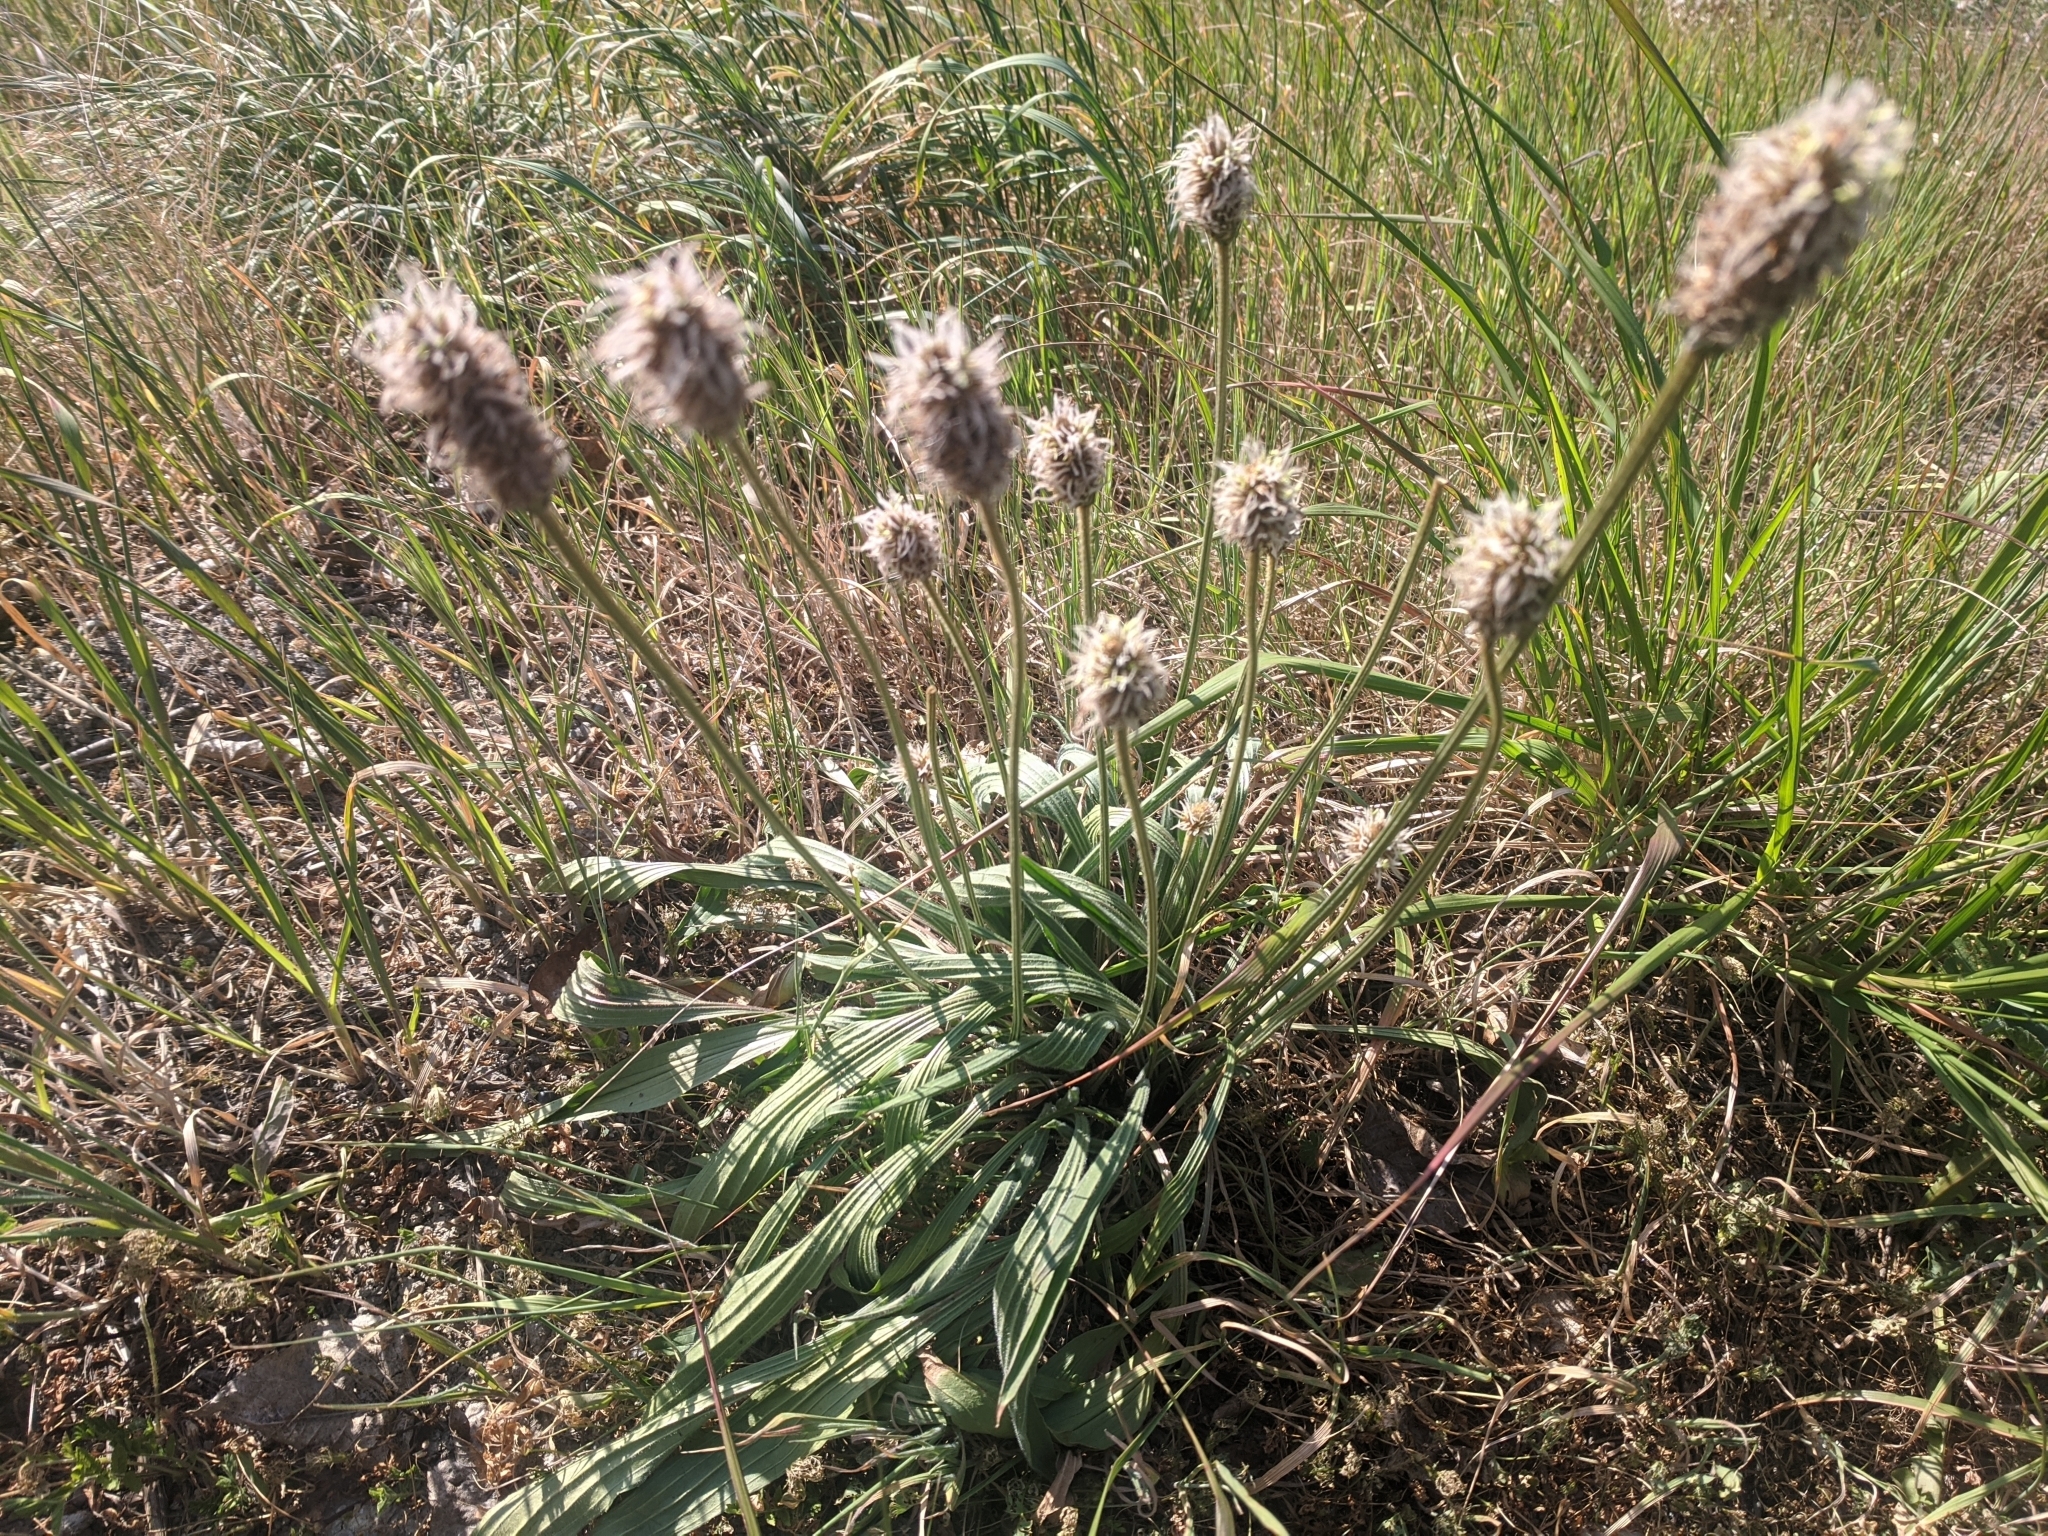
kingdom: Plantae
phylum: Tracheophyta
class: Magnoliopsida
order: Lamiales
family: Plantaginaceae
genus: Plantago
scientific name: Plantago lanceolata
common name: Ribwort plantain
